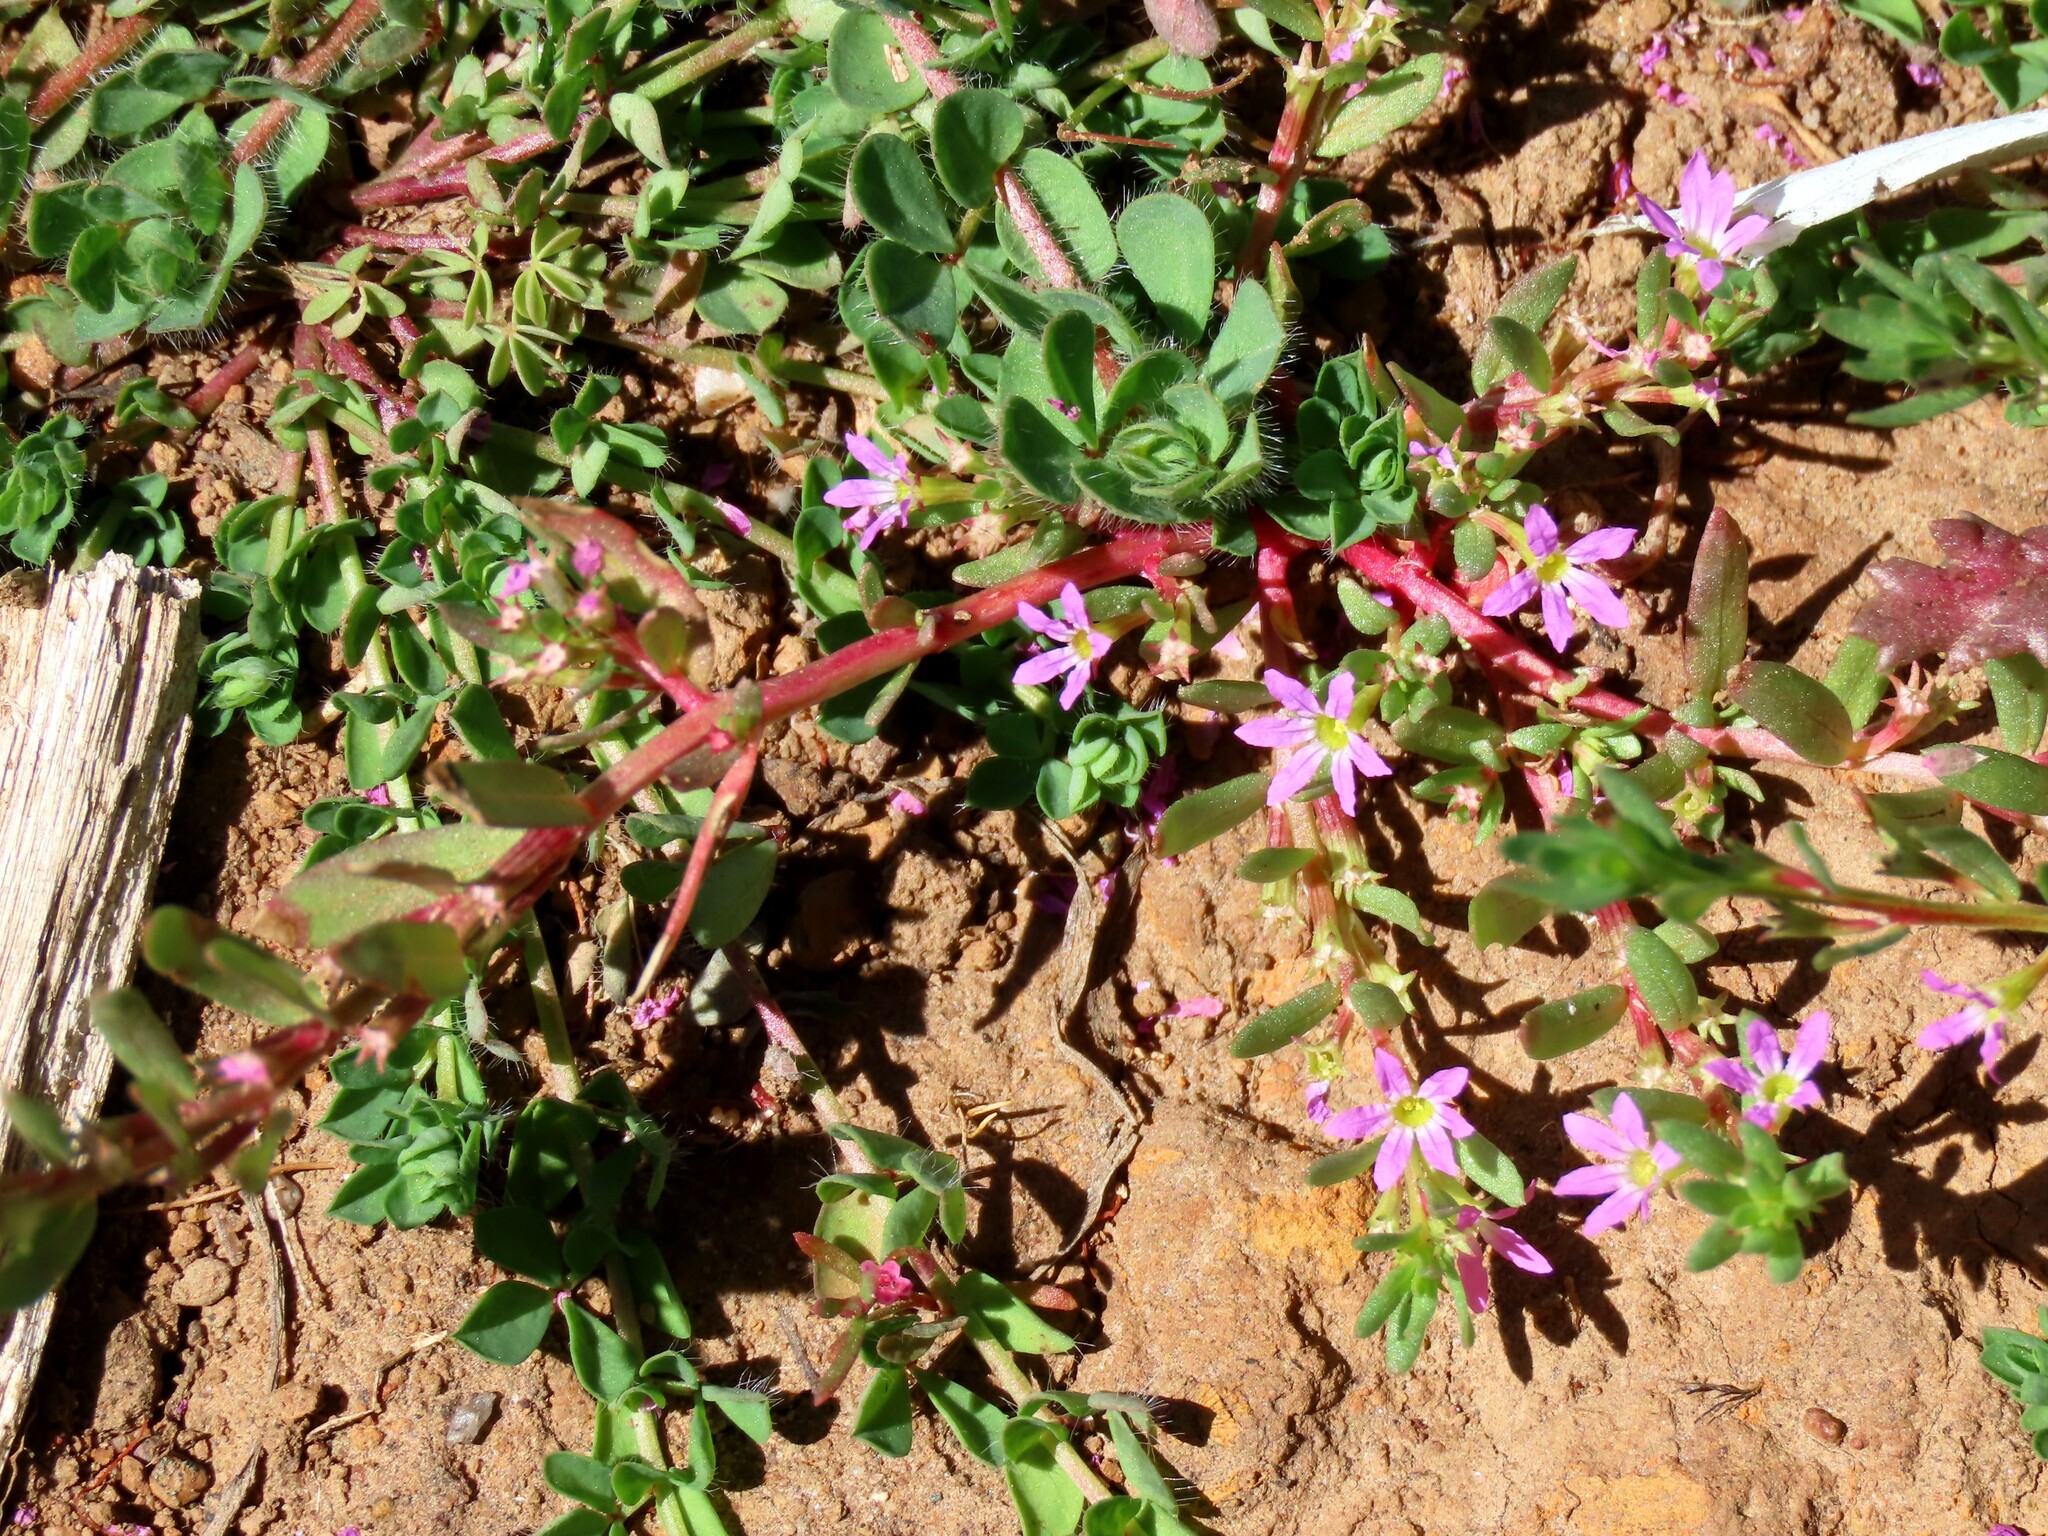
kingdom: Plantae
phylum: Tracheophyta
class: Magnoliopsida
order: Myrtales
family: Lythraceae
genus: Lythrum
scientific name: Lythrum hyssopifolia
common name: Grass-poly
